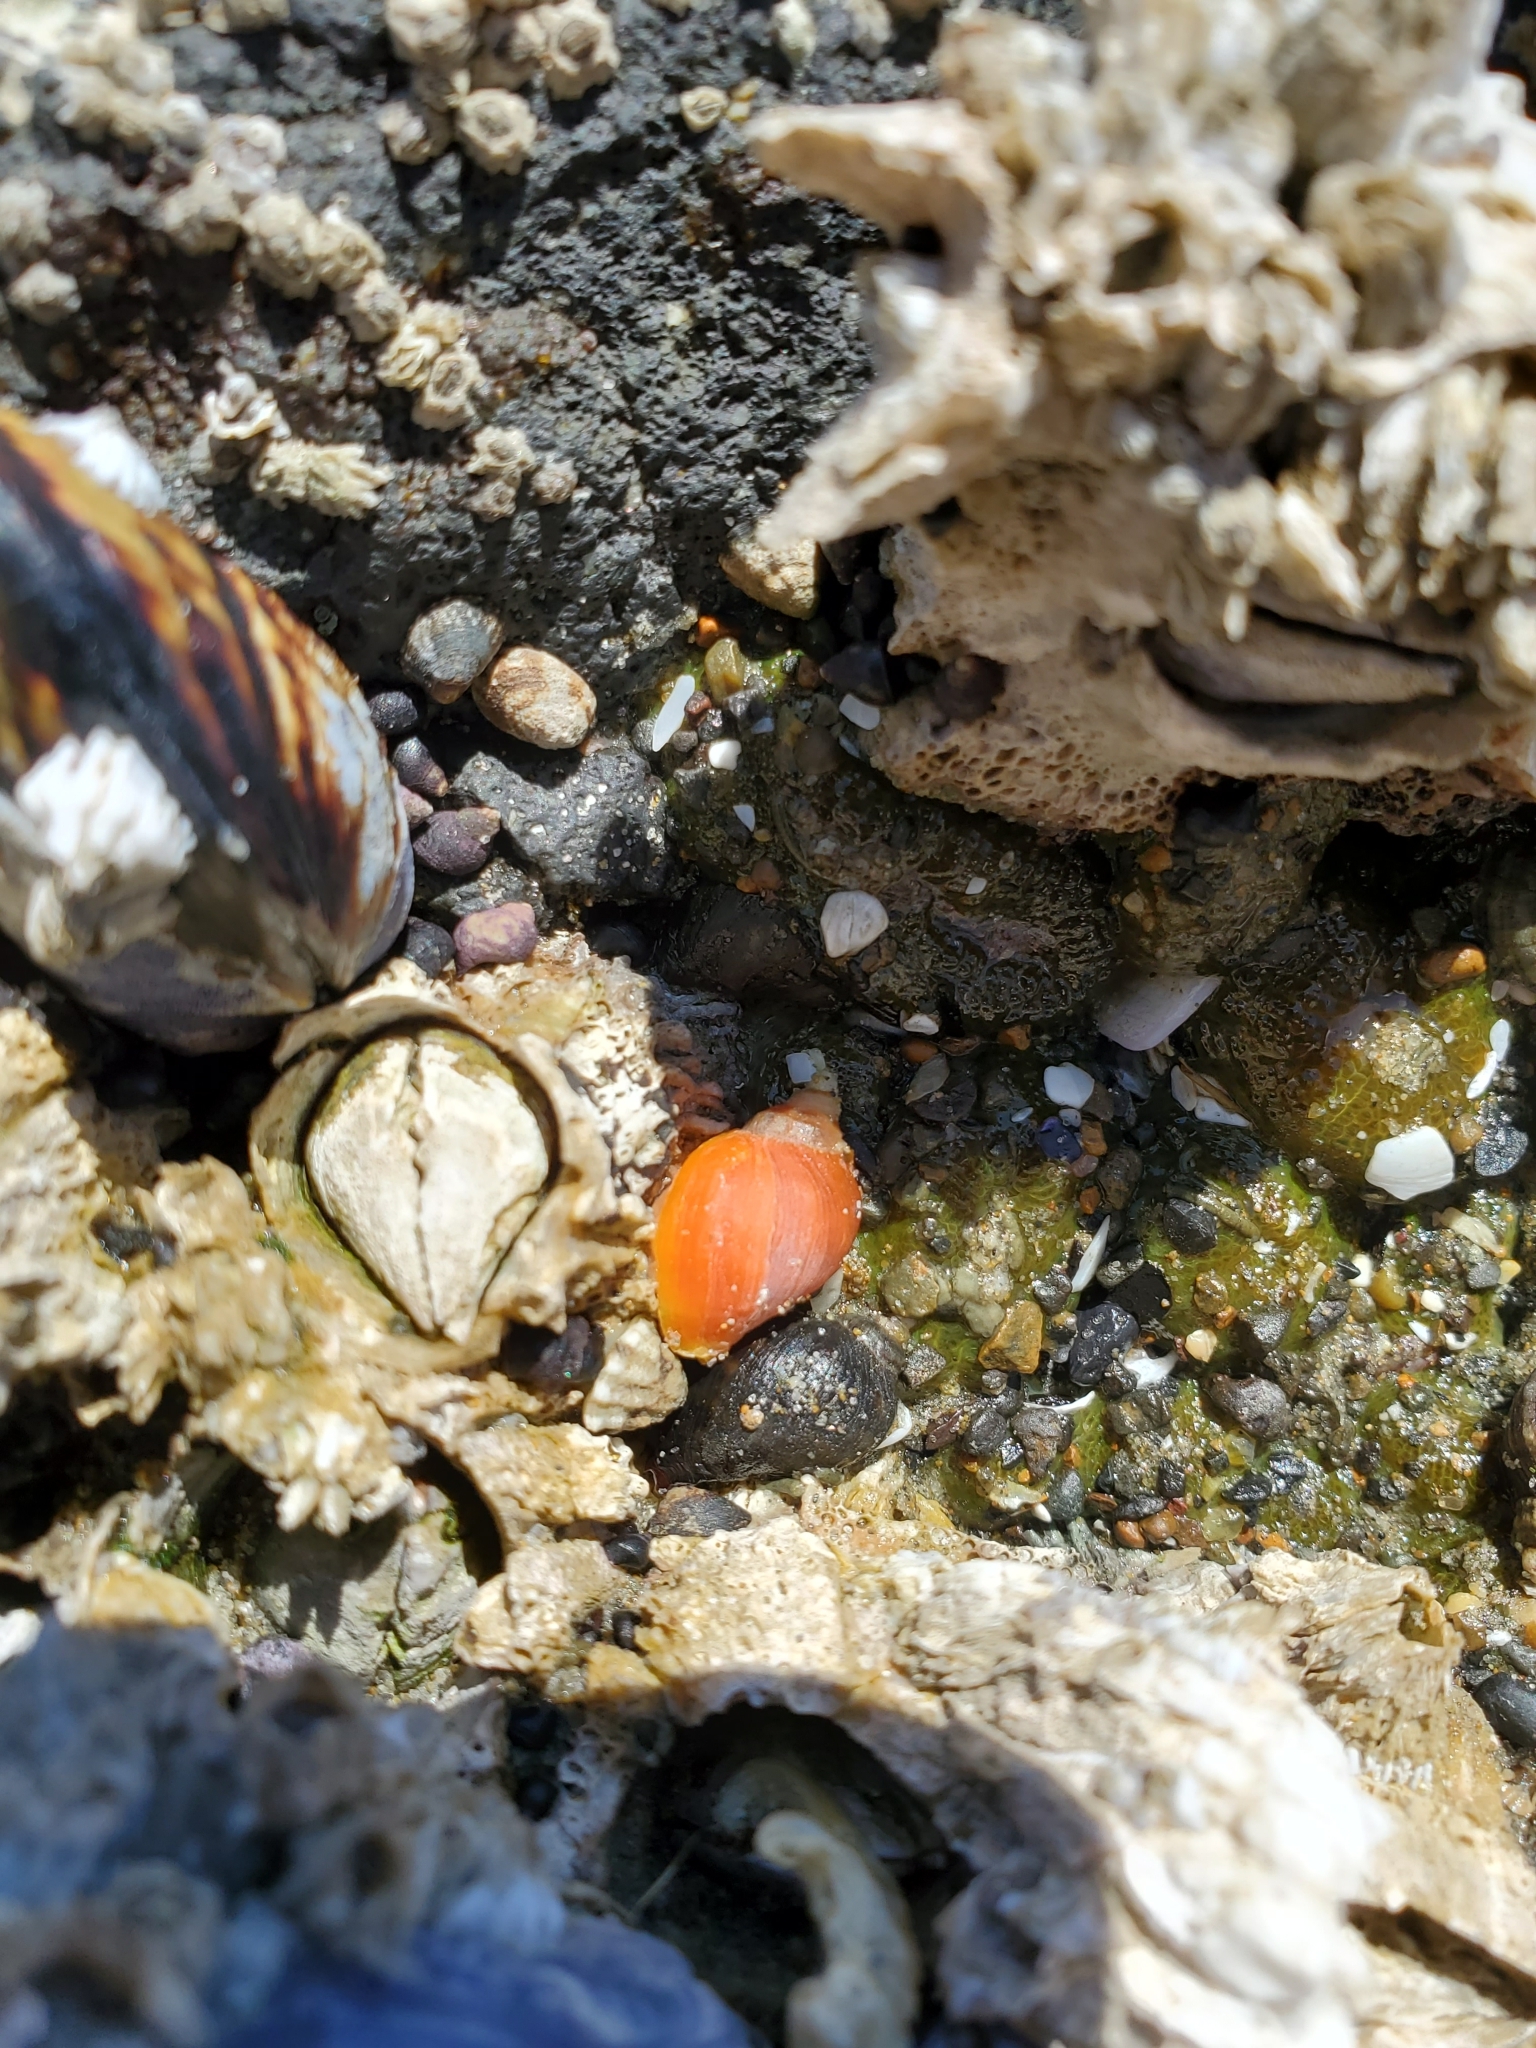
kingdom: Animalia
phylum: Mollusca
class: Gastropoda
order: Neogastropoda
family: Muricidae
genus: Nucella
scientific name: Nucella ostrina
